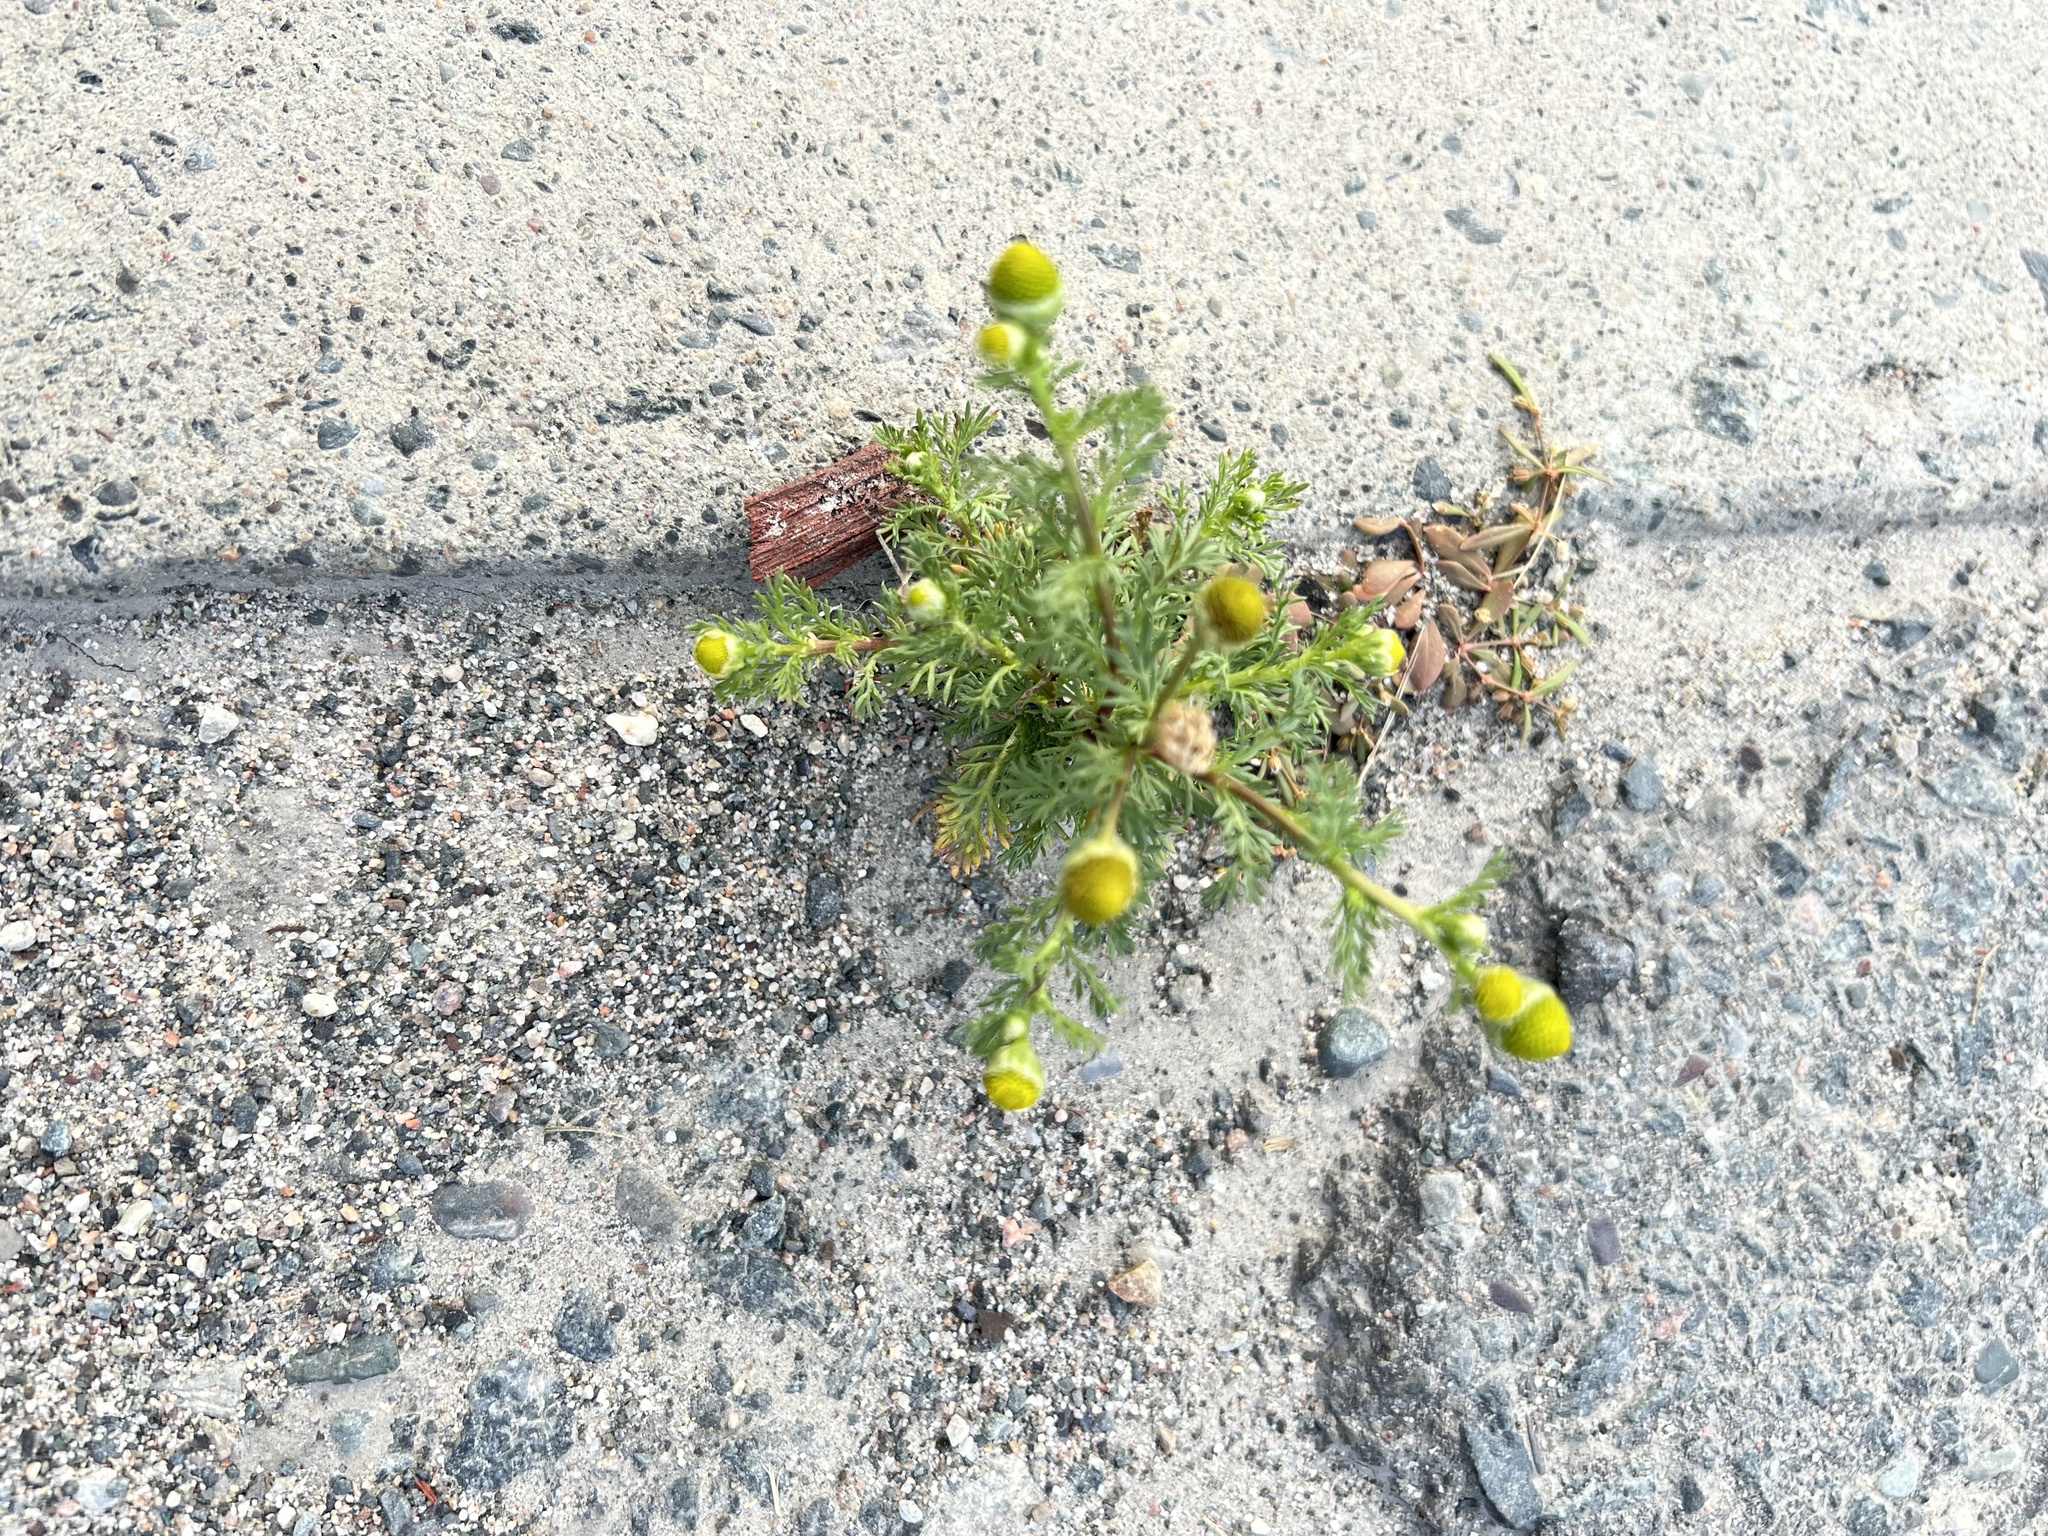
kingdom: Plantae
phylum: Tracheophyta
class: Magnoliopsida
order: Asterales
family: Asteraceae
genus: Matricaria
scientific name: Matricaria discoidea
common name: Disc mayweed
